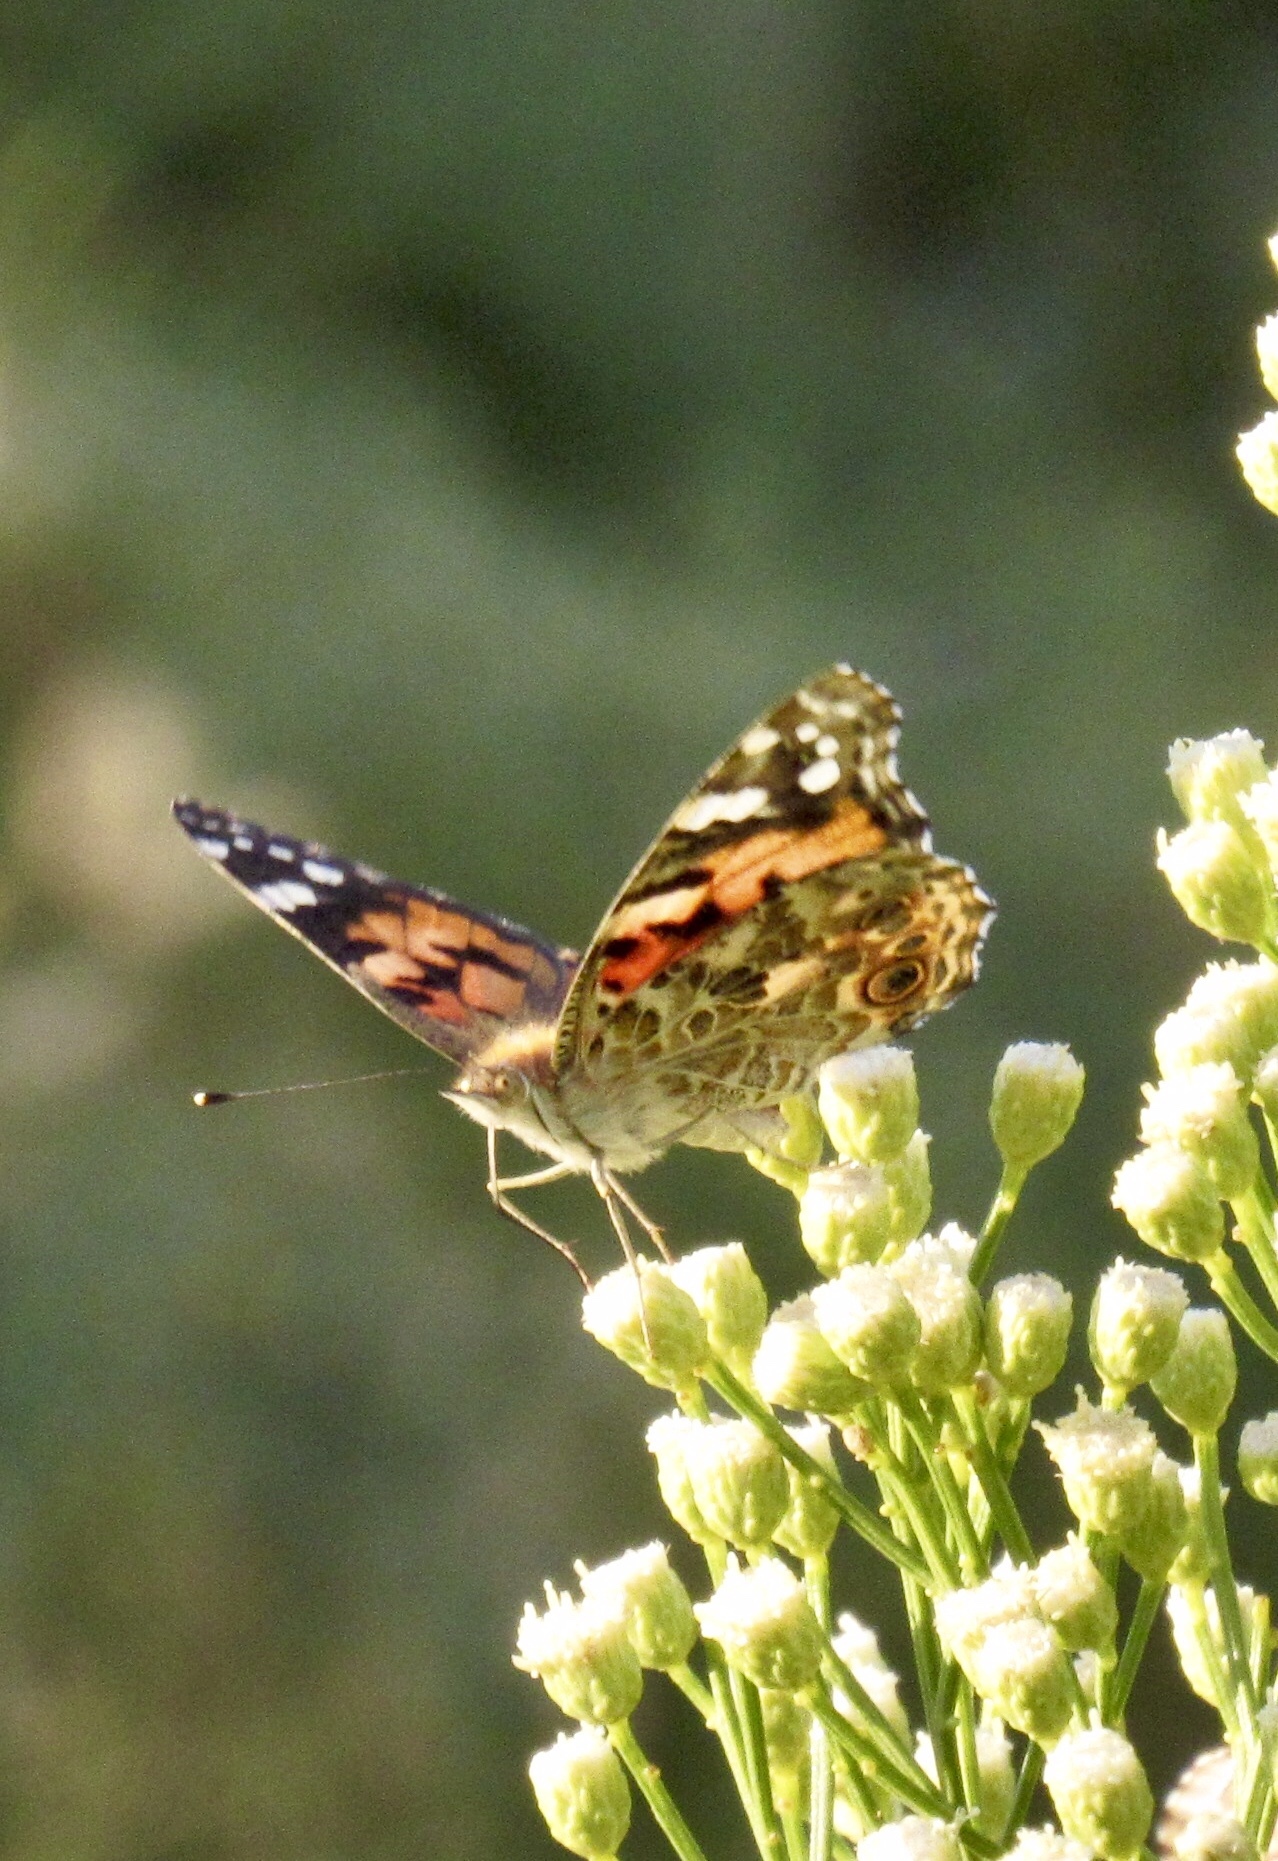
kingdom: Animalia
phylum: Arthropoda
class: Insecta
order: Lepidoptera
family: Nymphalidae
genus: Vanessa
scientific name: Vanessa cardui
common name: Painted lady
